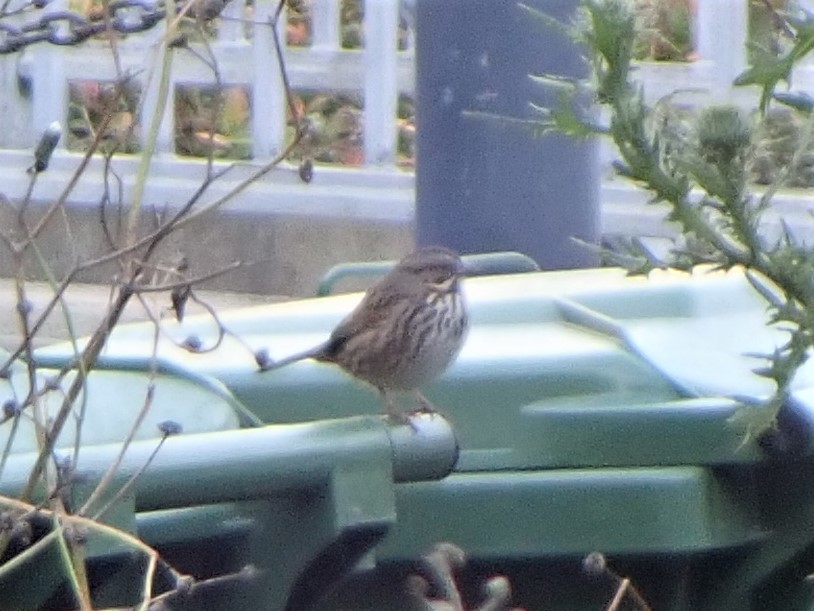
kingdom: Animalia
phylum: Chordata
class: Aves
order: Passeriformes
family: Passerellidae
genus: Melospiza
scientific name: Melospiza melodia
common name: Song sparrow
